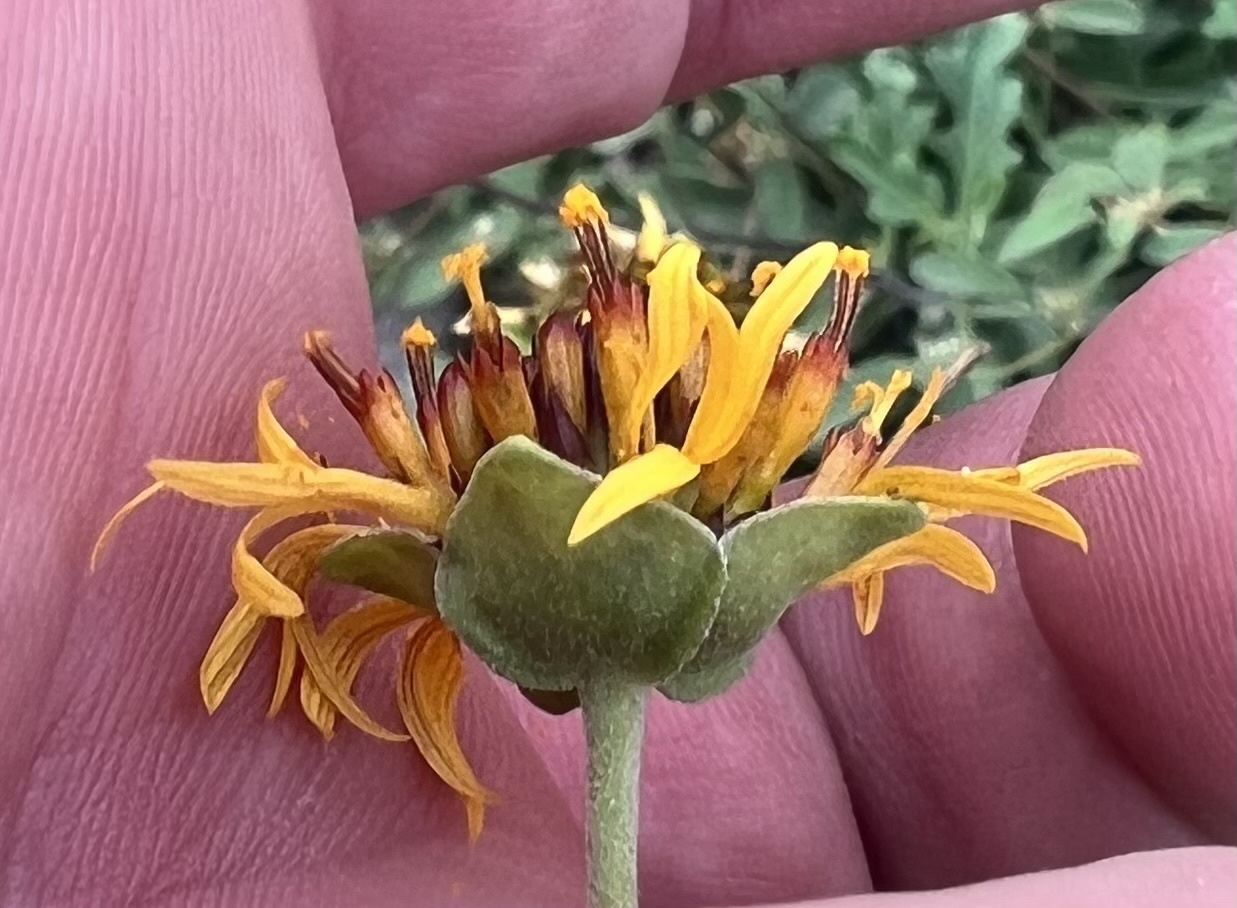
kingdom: Plantae
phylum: Tracheophyta
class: Magnoliopsida
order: Asterales
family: Asteraceae
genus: Tetragonotheca
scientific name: Tetragonotheca texana
